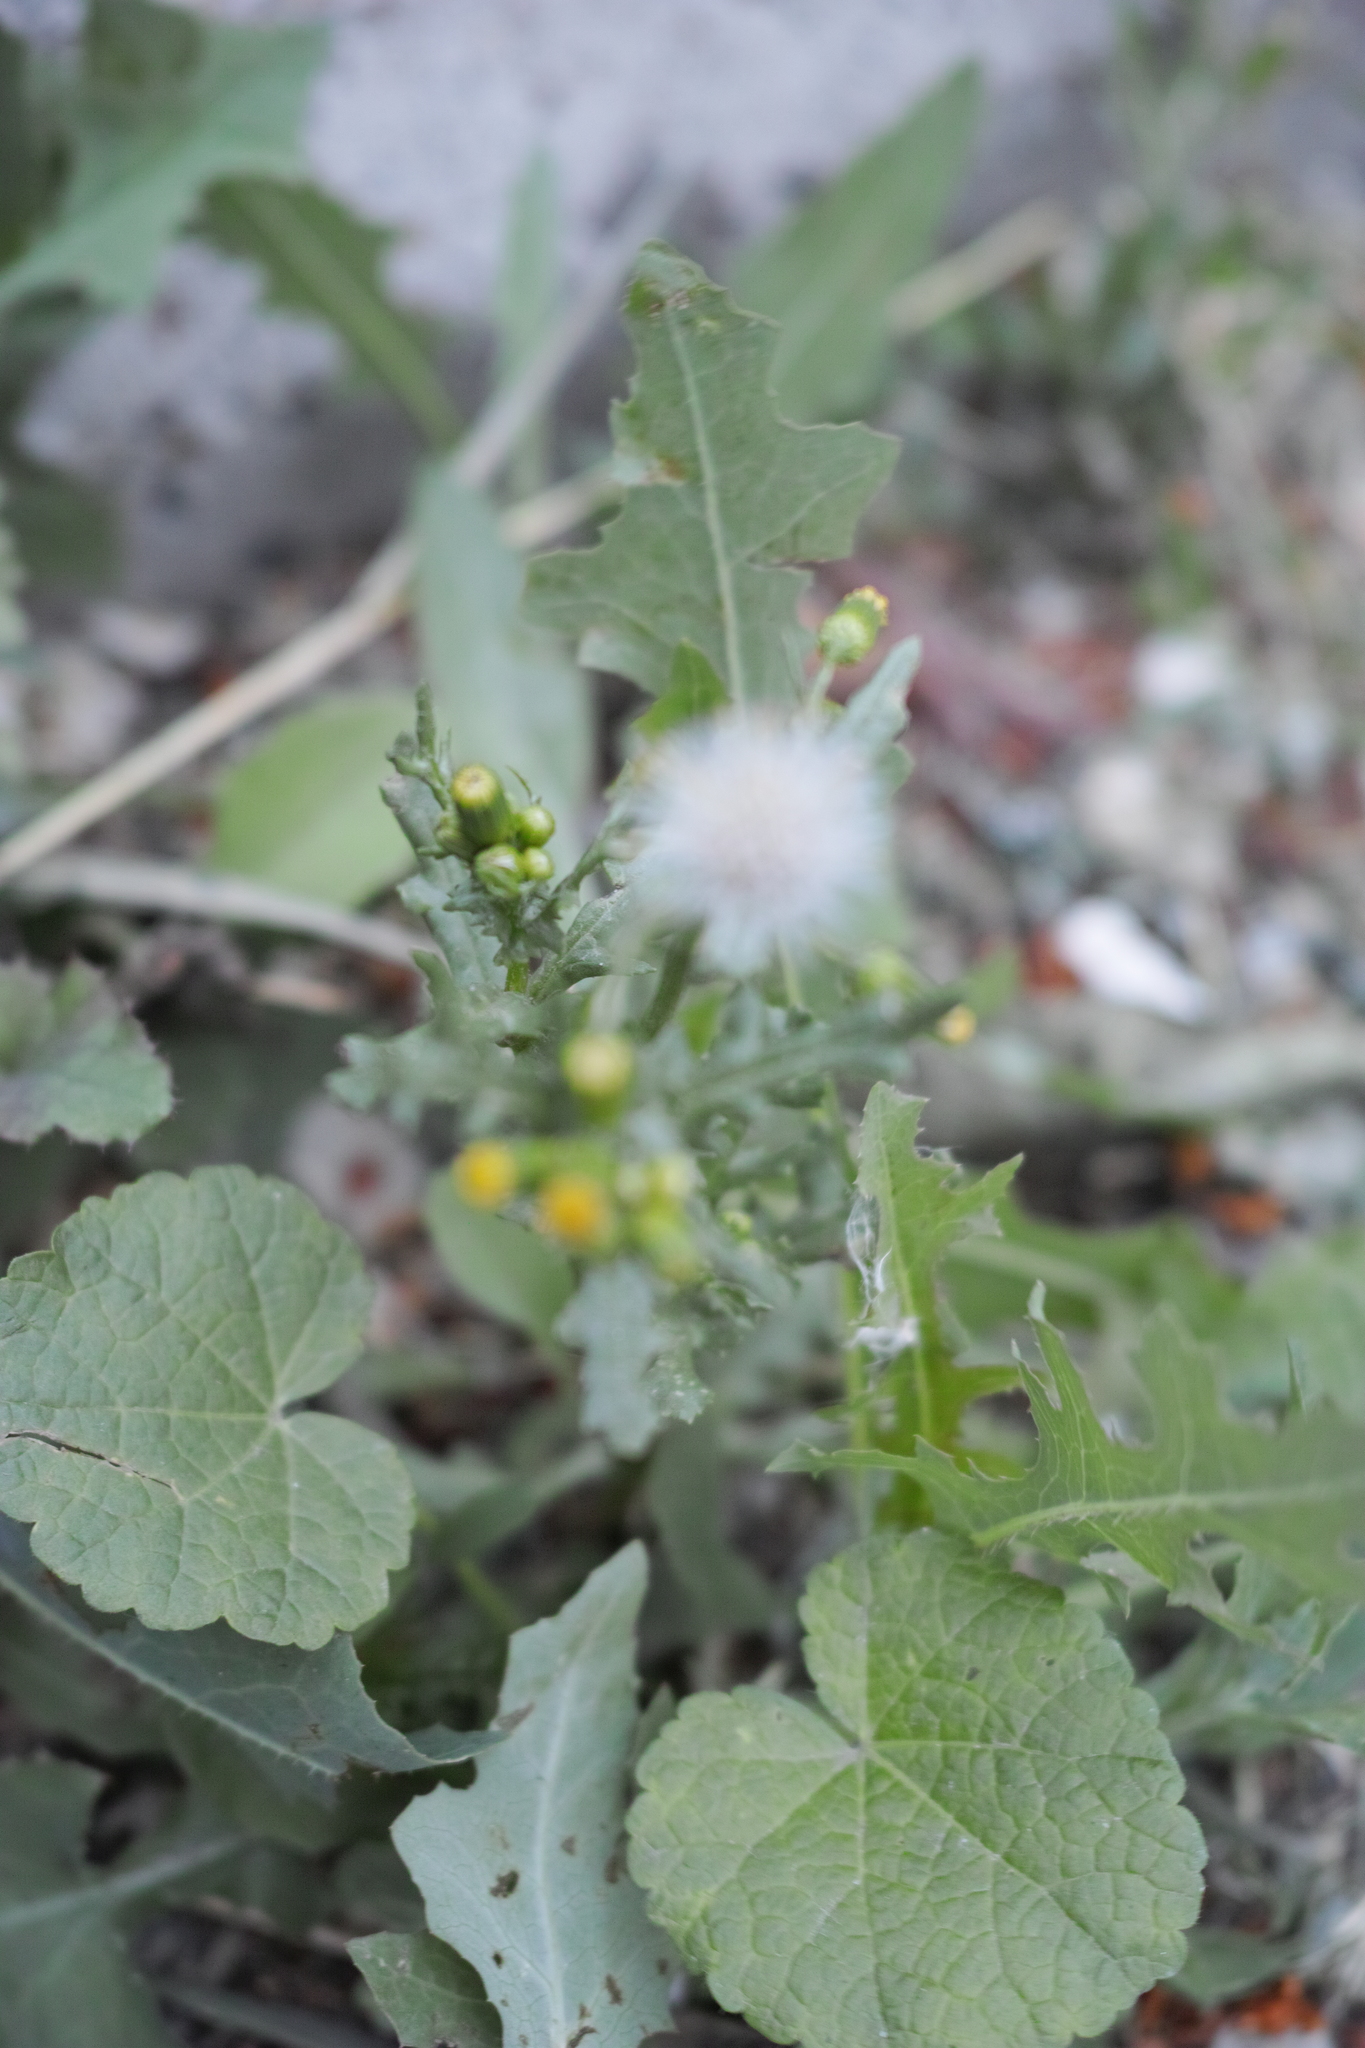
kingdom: Plantae
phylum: Tracheophyta
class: Magnoliopsida
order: Asterales
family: Asteraceae
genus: Senecio
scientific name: Senecio vulgaris
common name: Old-man-in-the-spring
